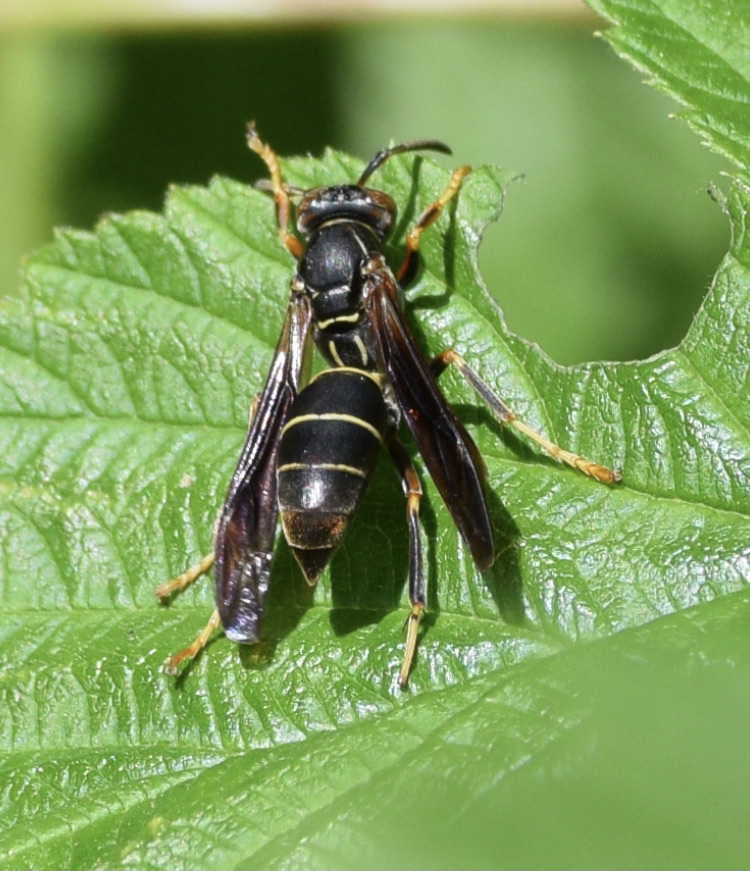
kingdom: Animalia
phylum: Arthropoda
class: Insecta
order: Hymenoptera
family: Eumenidae
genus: Polistes
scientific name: Polistes fuscatus
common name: Dark paper wasp
